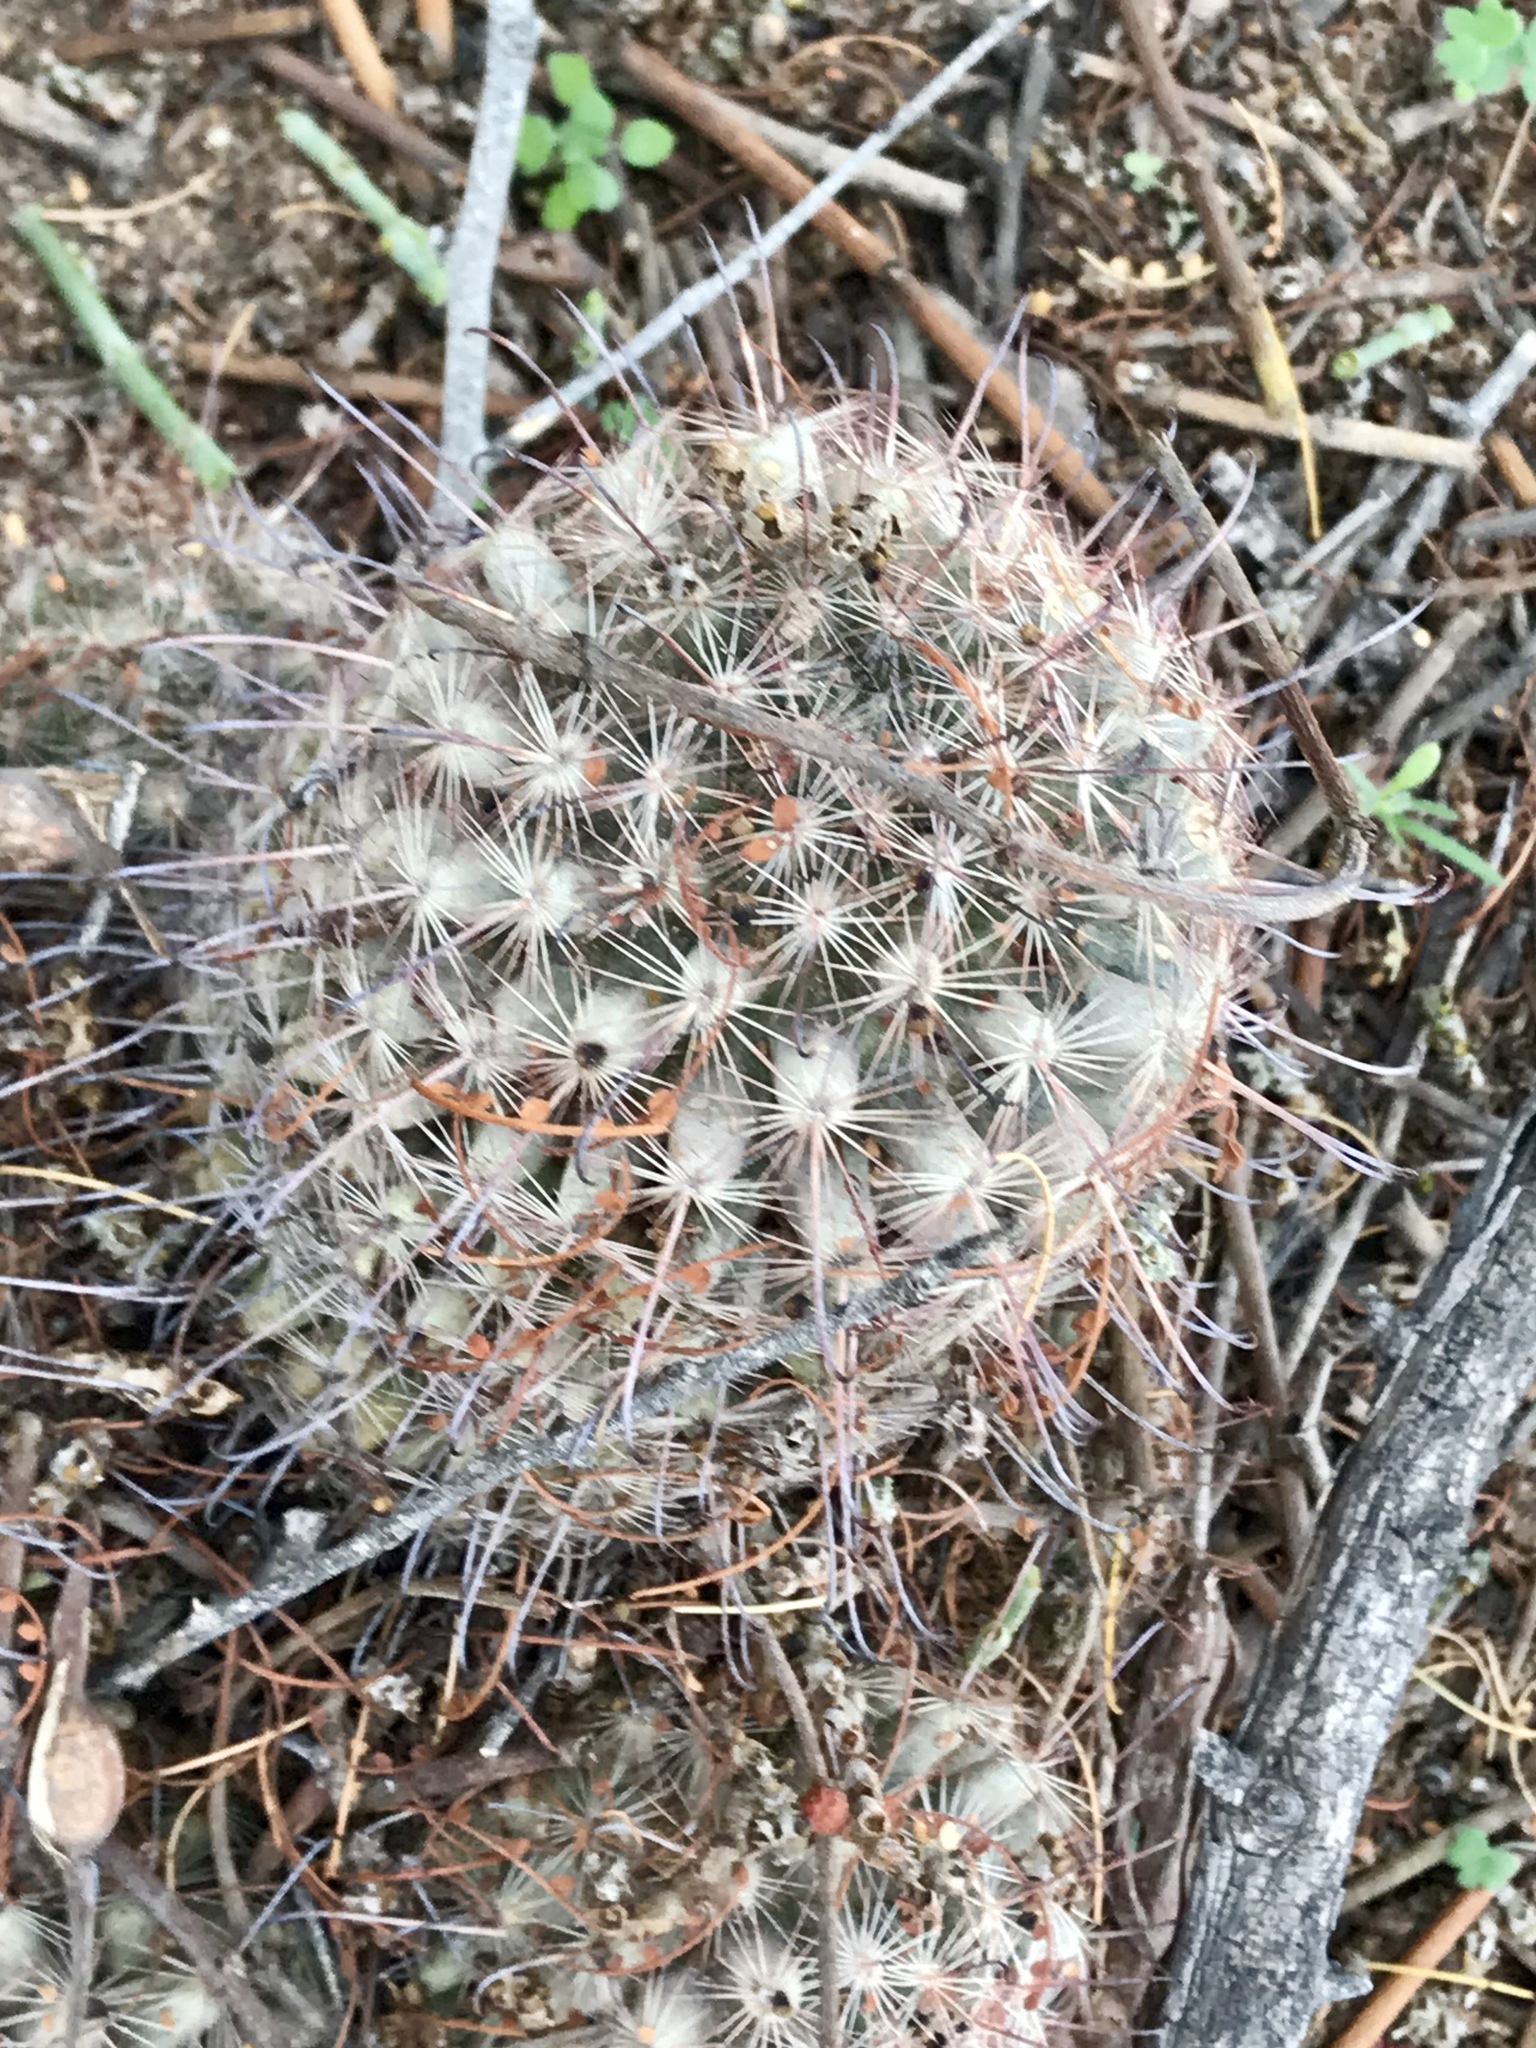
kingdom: Plantae
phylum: Tracheophyta
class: Magnoliopsida
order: Caryophyllales
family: Cactaceae
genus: Cochemiea
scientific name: Cochemiea grahamii
